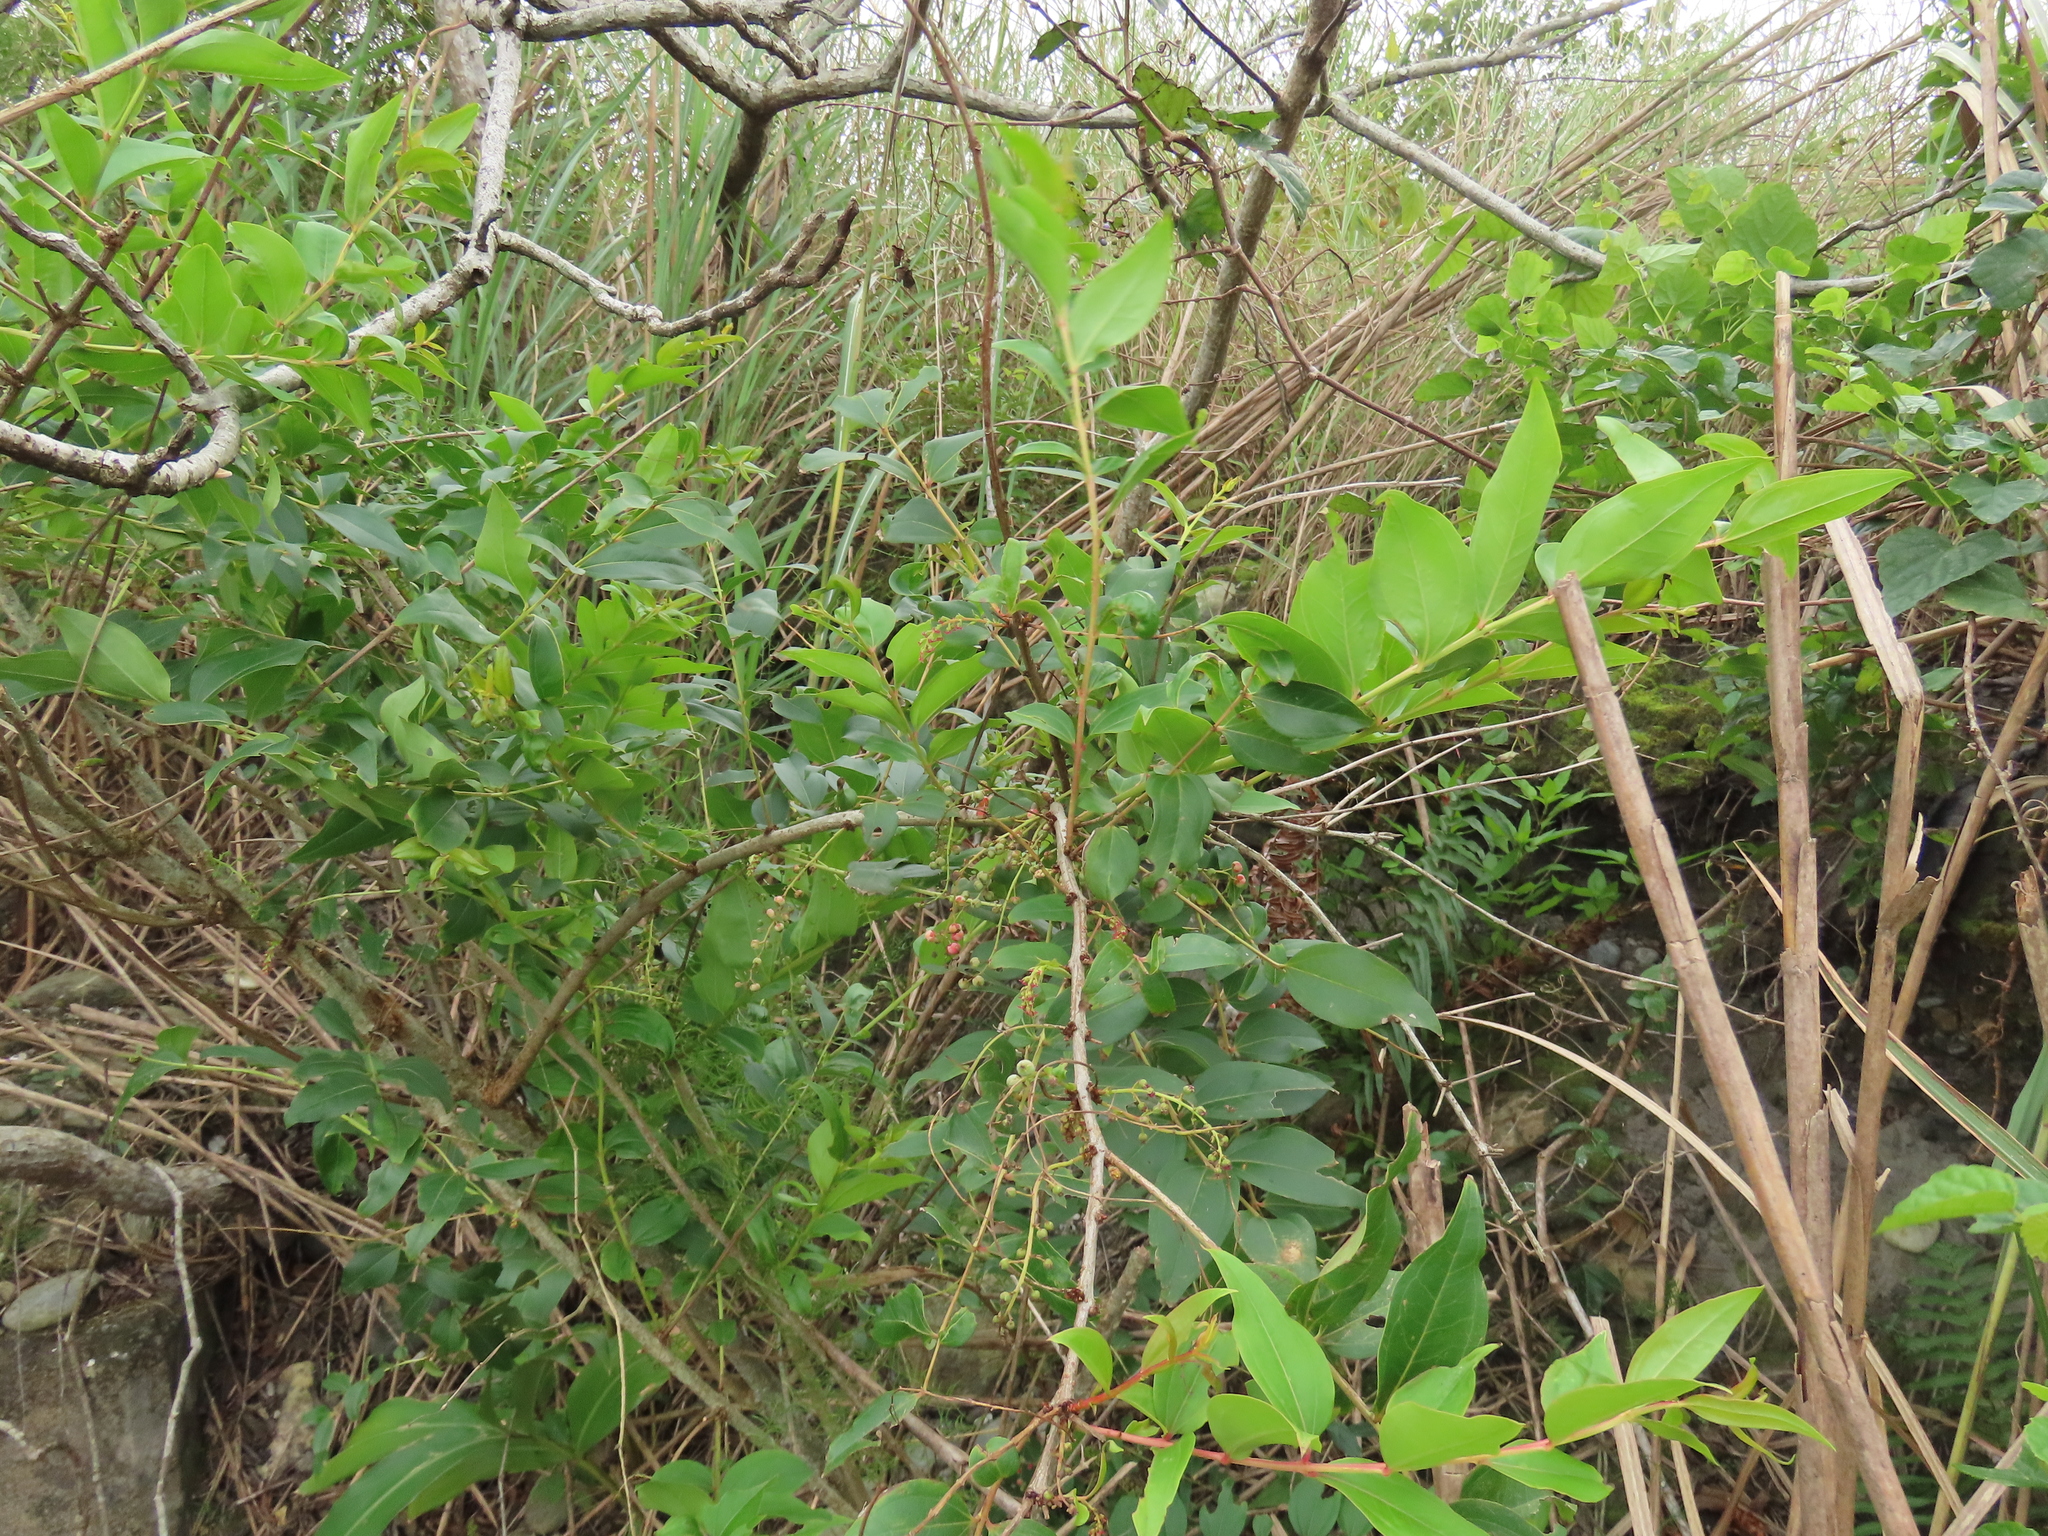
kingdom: Plantae
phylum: Tracheophyta
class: Magnoliopsida
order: Cucurbitales
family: Coriariaceae
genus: Coriaria
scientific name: Coriaria japonica
